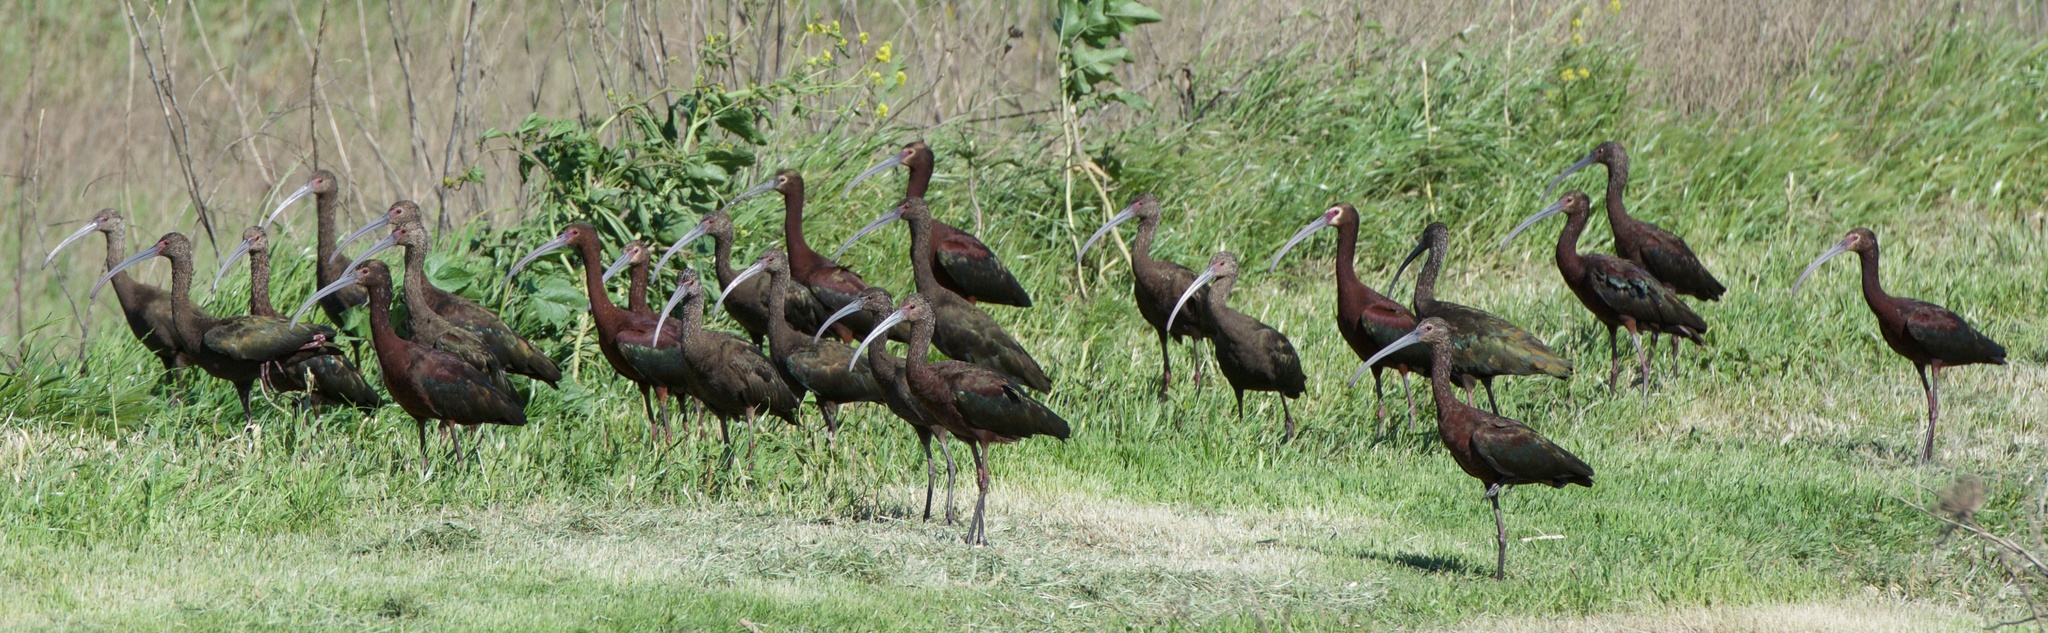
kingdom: Animalia
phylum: Chordata
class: Aves
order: Pelecaniformes
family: Threskiornithidae
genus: Plegadis
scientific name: Plegadis chihi
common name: White-faced ibis
